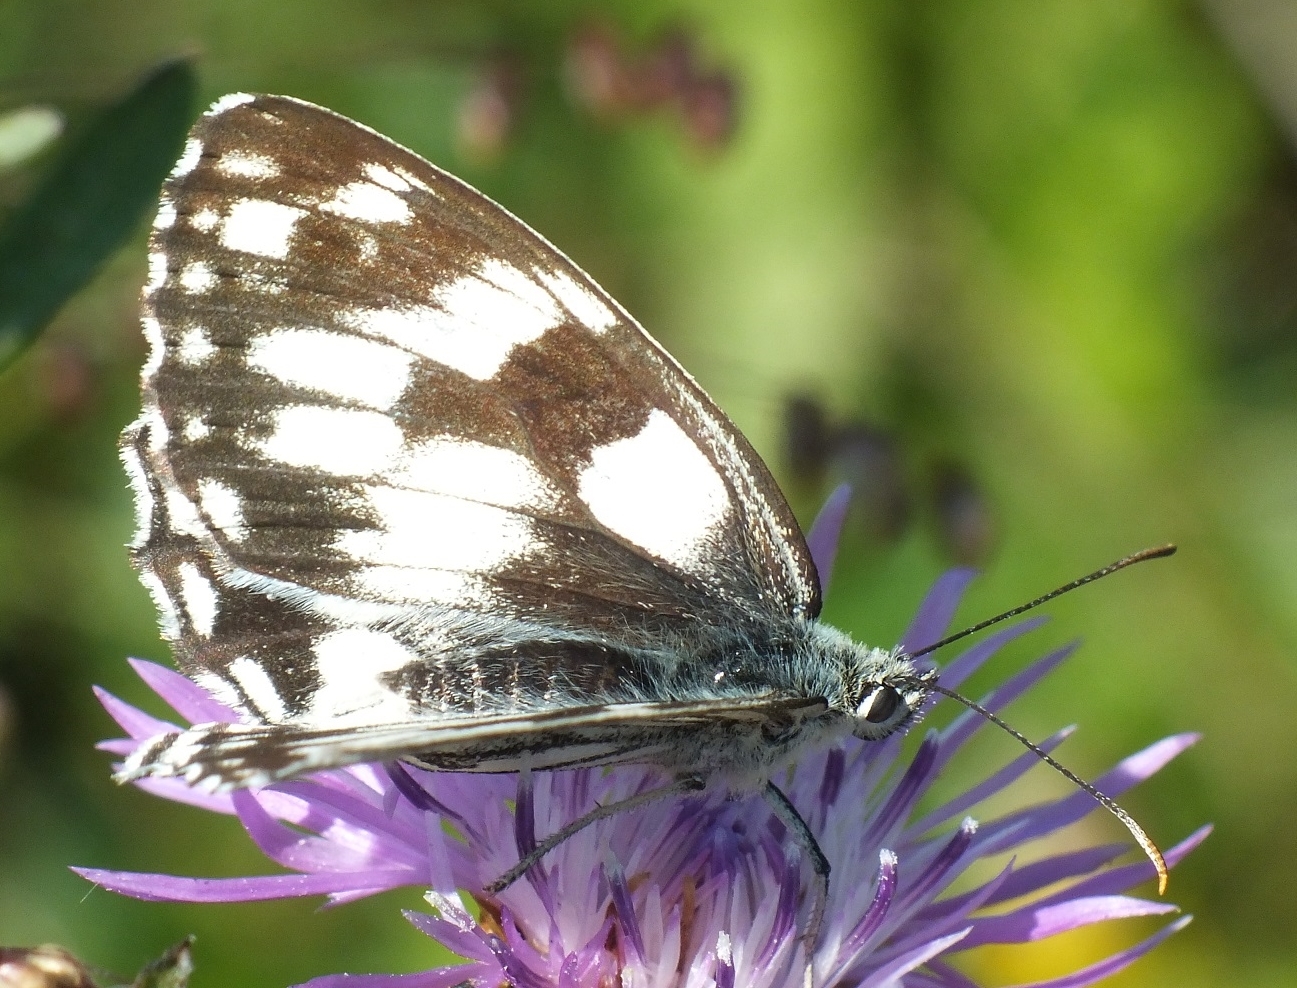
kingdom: Animalia
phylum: Arthropoda
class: Insecta
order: Lepidoptera
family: Nymphalidae
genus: Melanargia
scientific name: Melanargia galathea
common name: Marbled white
